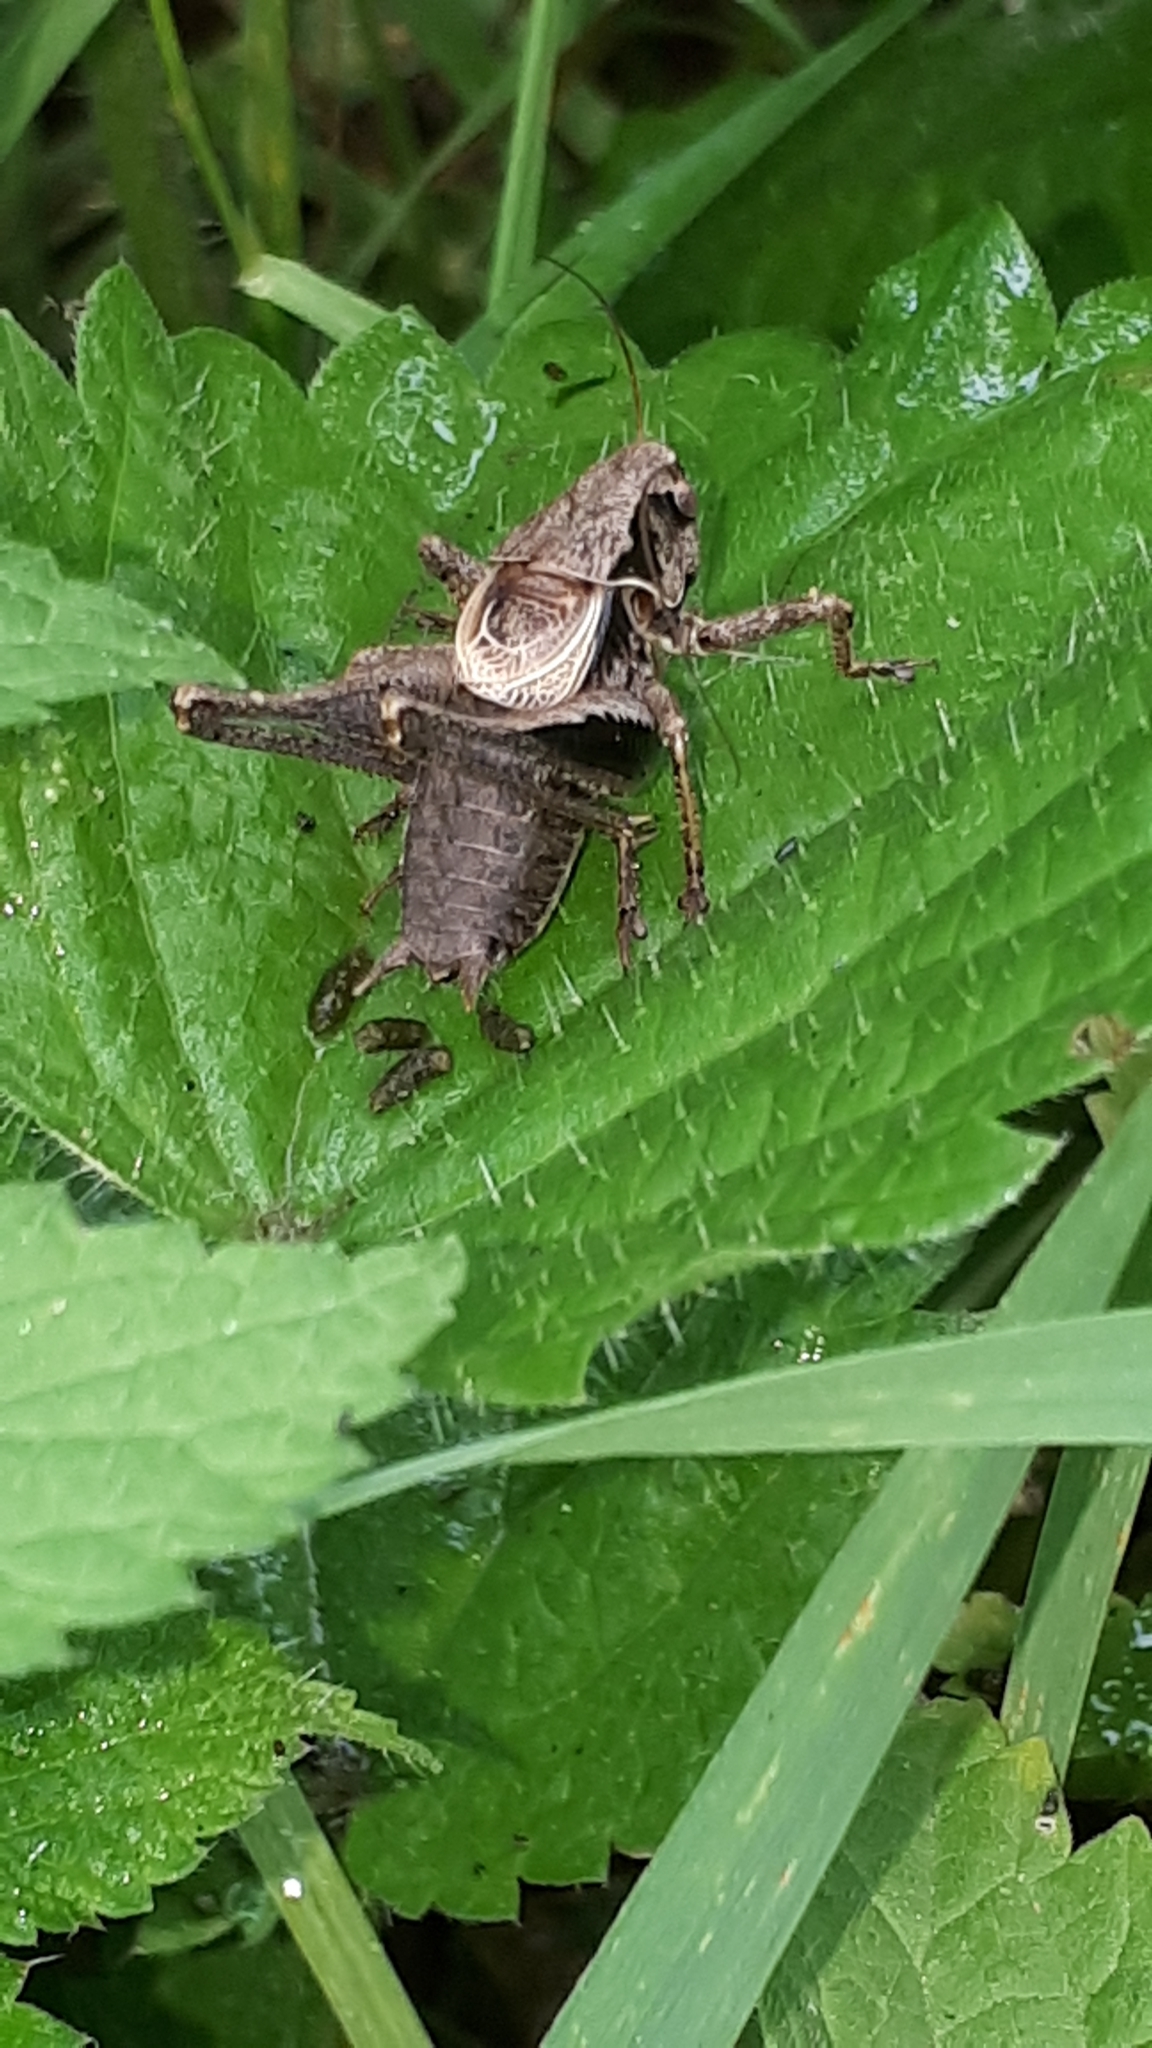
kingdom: Animalia
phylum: Arthropoda
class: Insecta
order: Orthoptera
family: Tettigoniidae
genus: Pholidoptera
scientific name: Pholidoptera griseoaptera
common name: Dark bush-cricket
